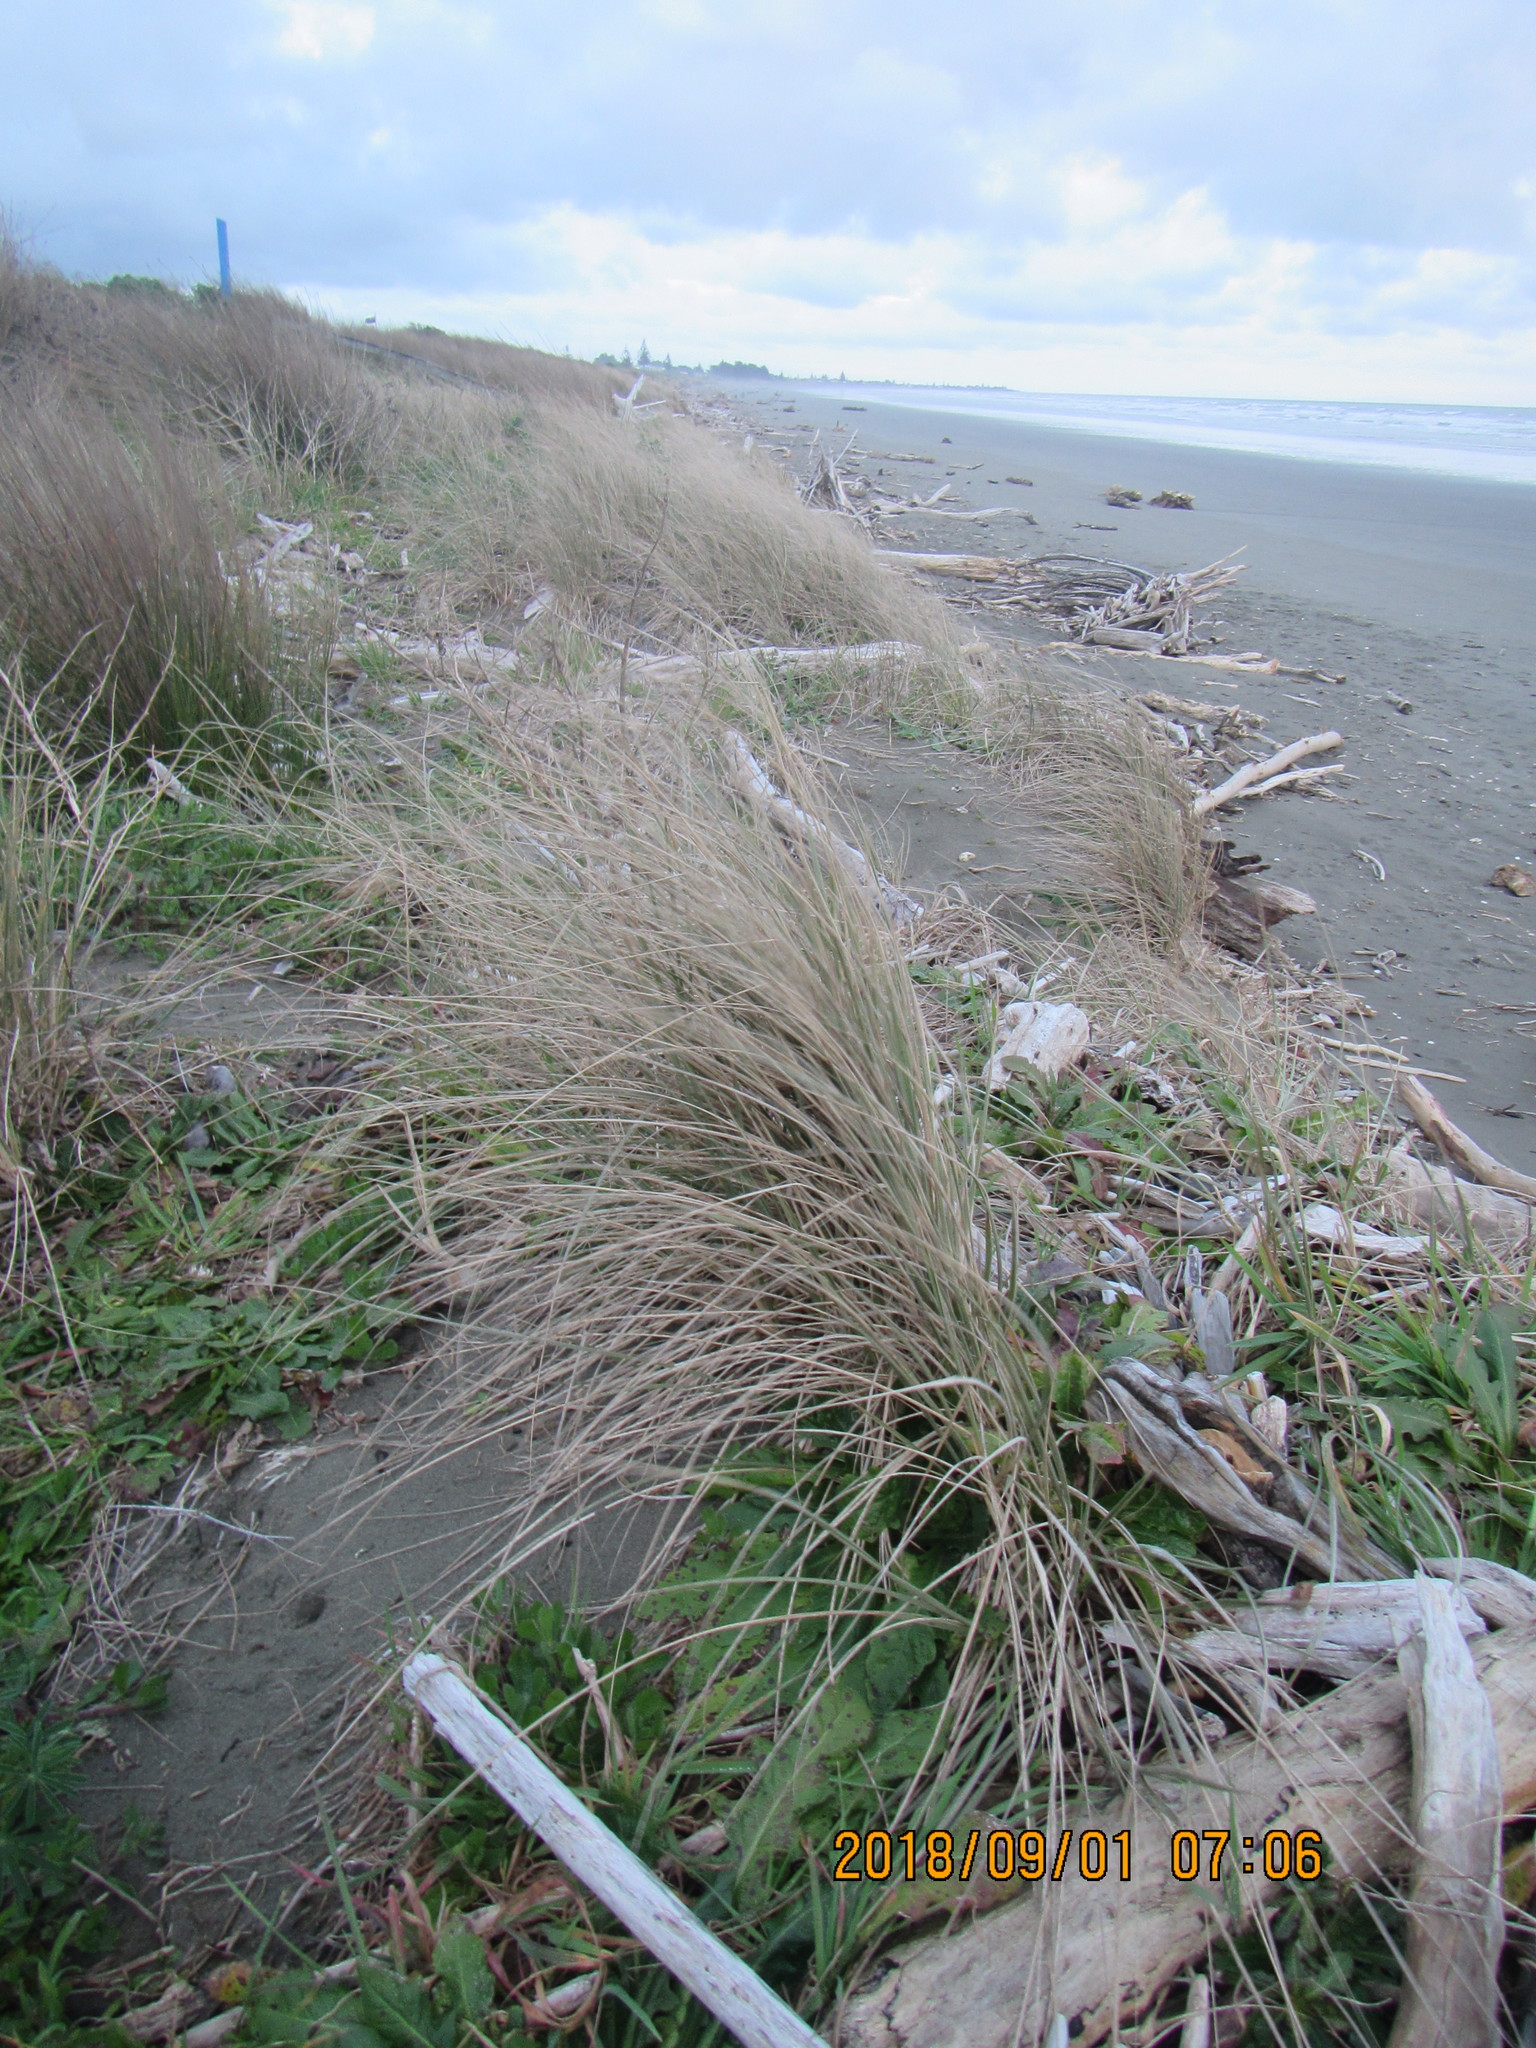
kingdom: Plantae
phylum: Tracheophyta
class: Liliopsida
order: Poales
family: Poaceae
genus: Spinifex
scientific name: Spinifex sericeus
